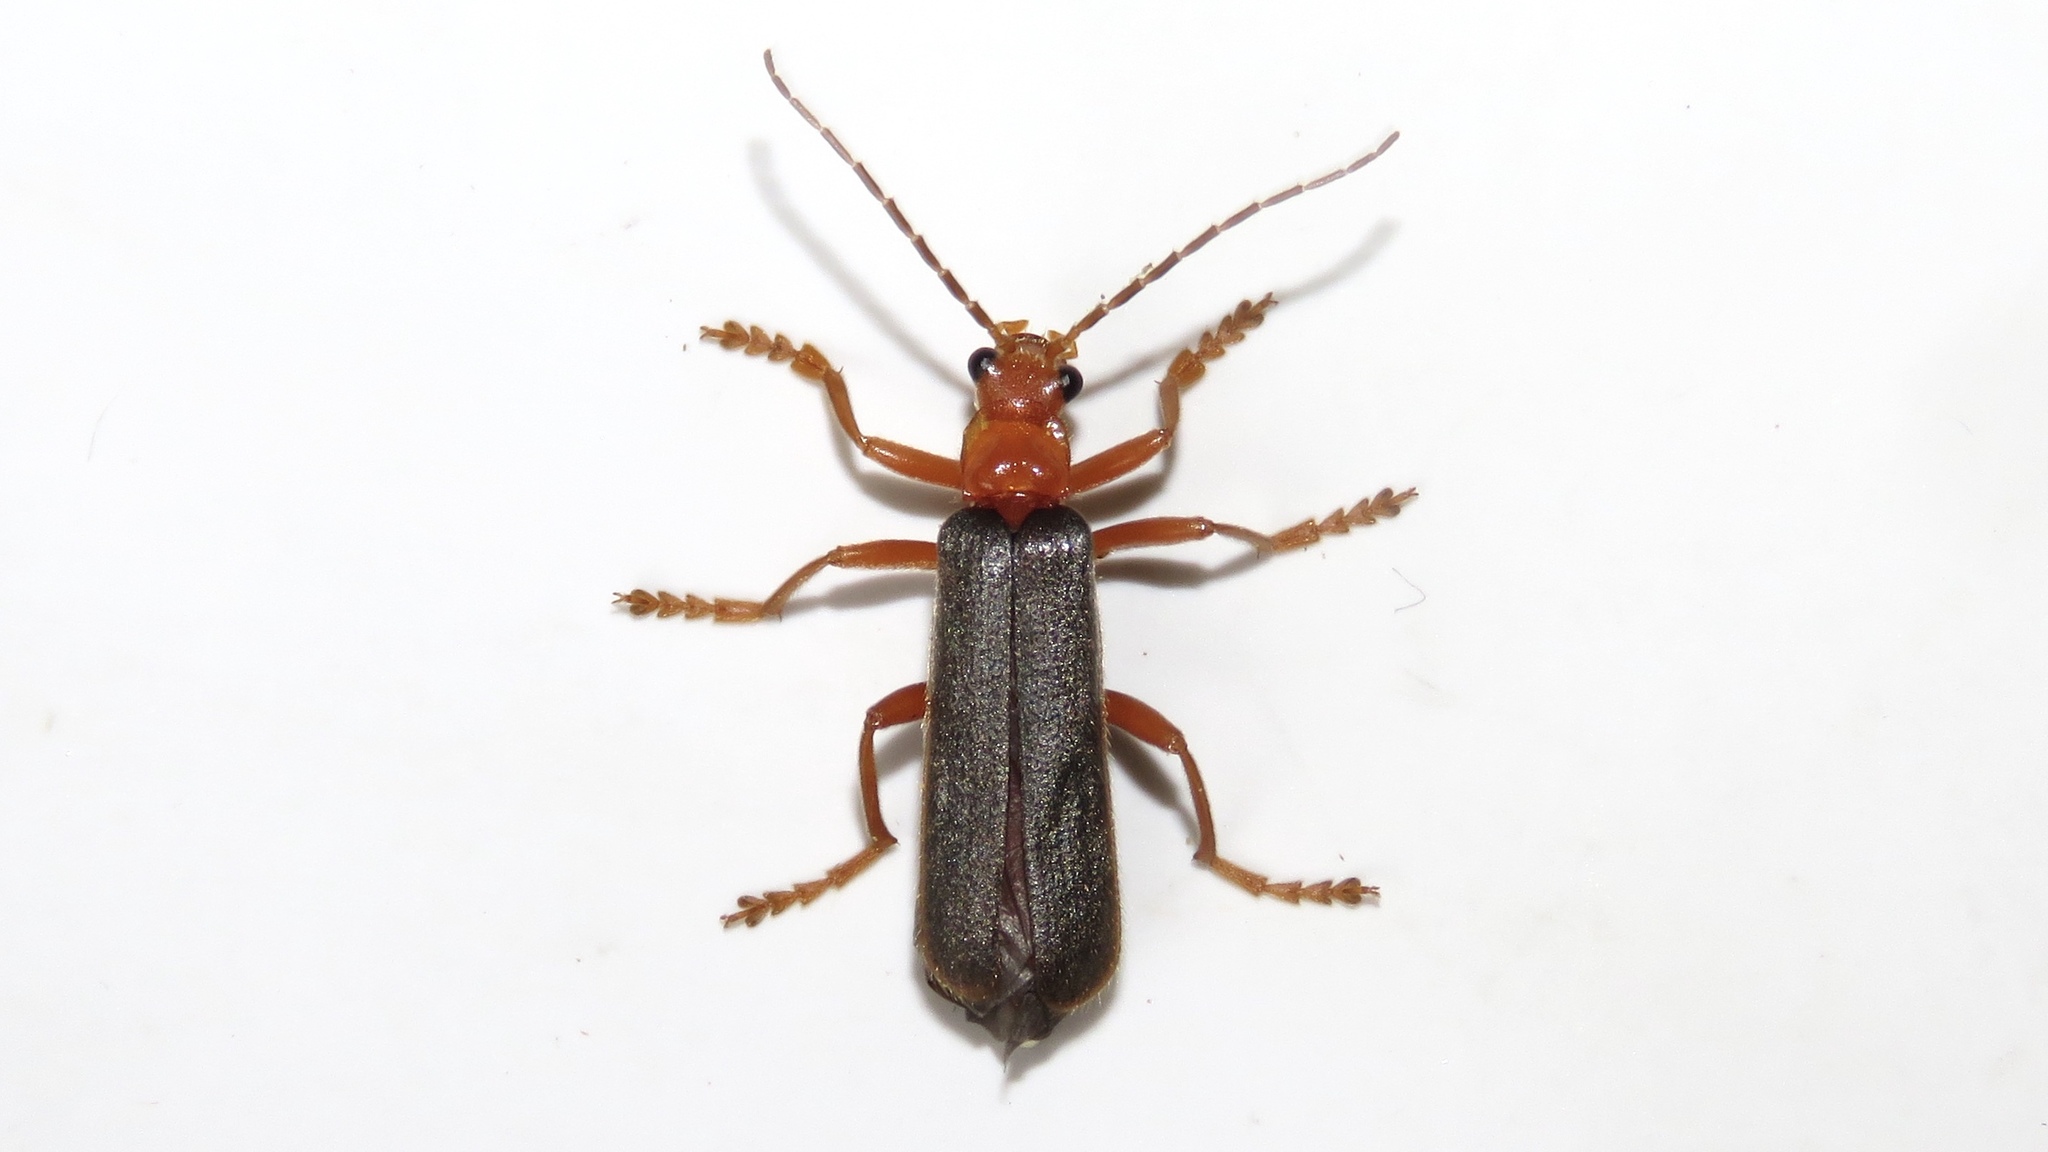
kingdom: Animalia
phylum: Arthropoda
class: Insecta
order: Coleoptera
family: Cantharidae
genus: Pacificanthia
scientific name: Pacificanthia rotundicollis
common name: Brown leatherwing beetle
